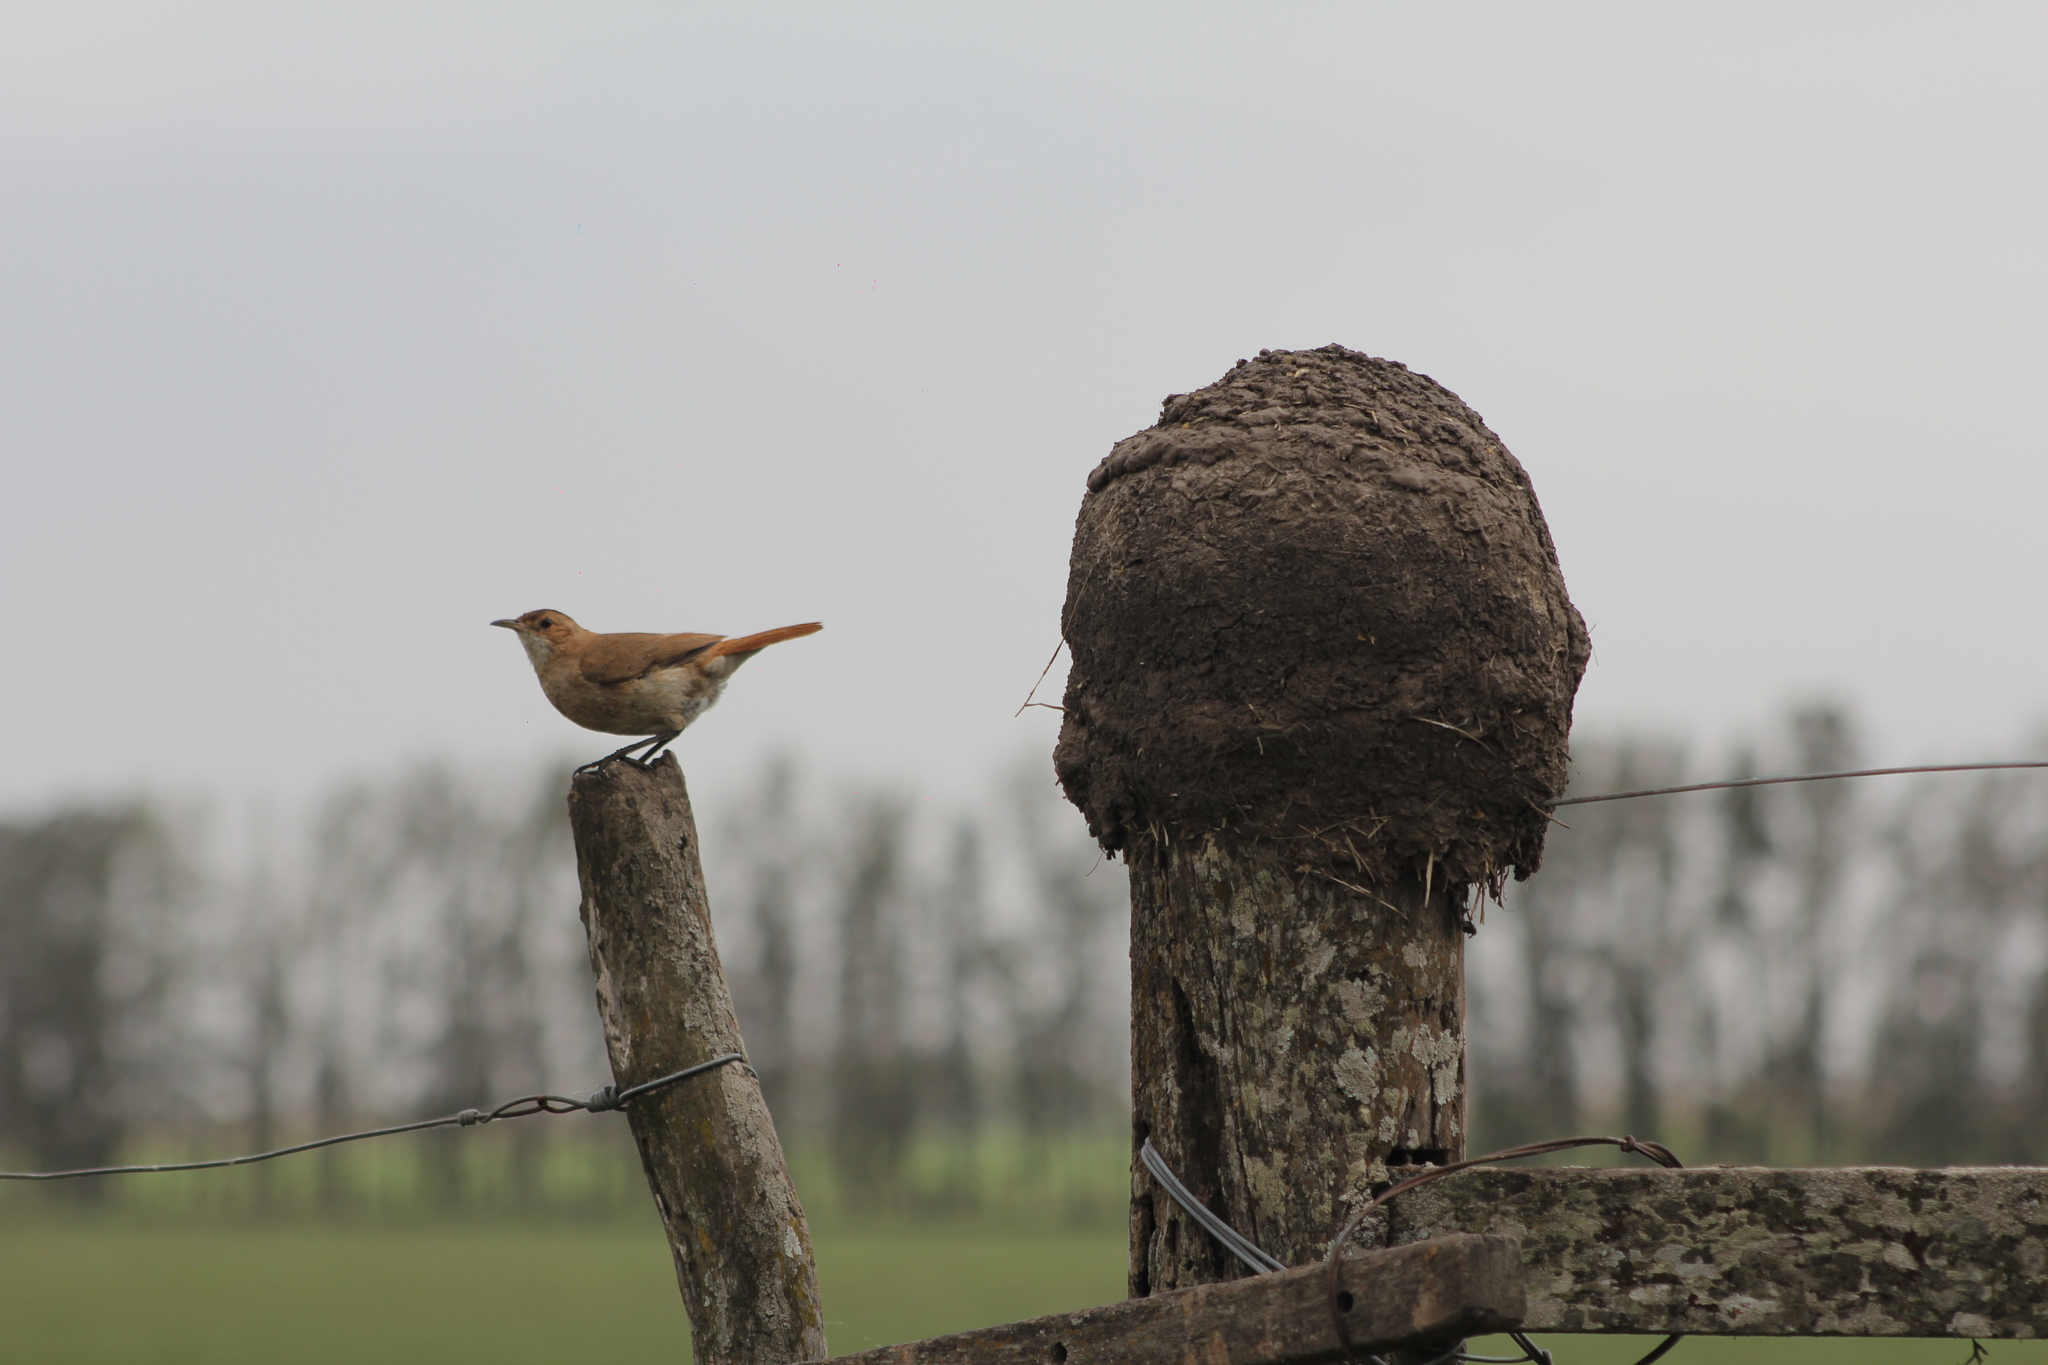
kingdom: Animalia
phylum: Chordata
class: Aves
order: Passeriformes
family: Furnariidae
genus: Furnarius
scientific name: Furnarius rufus
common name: Rufous hornero
